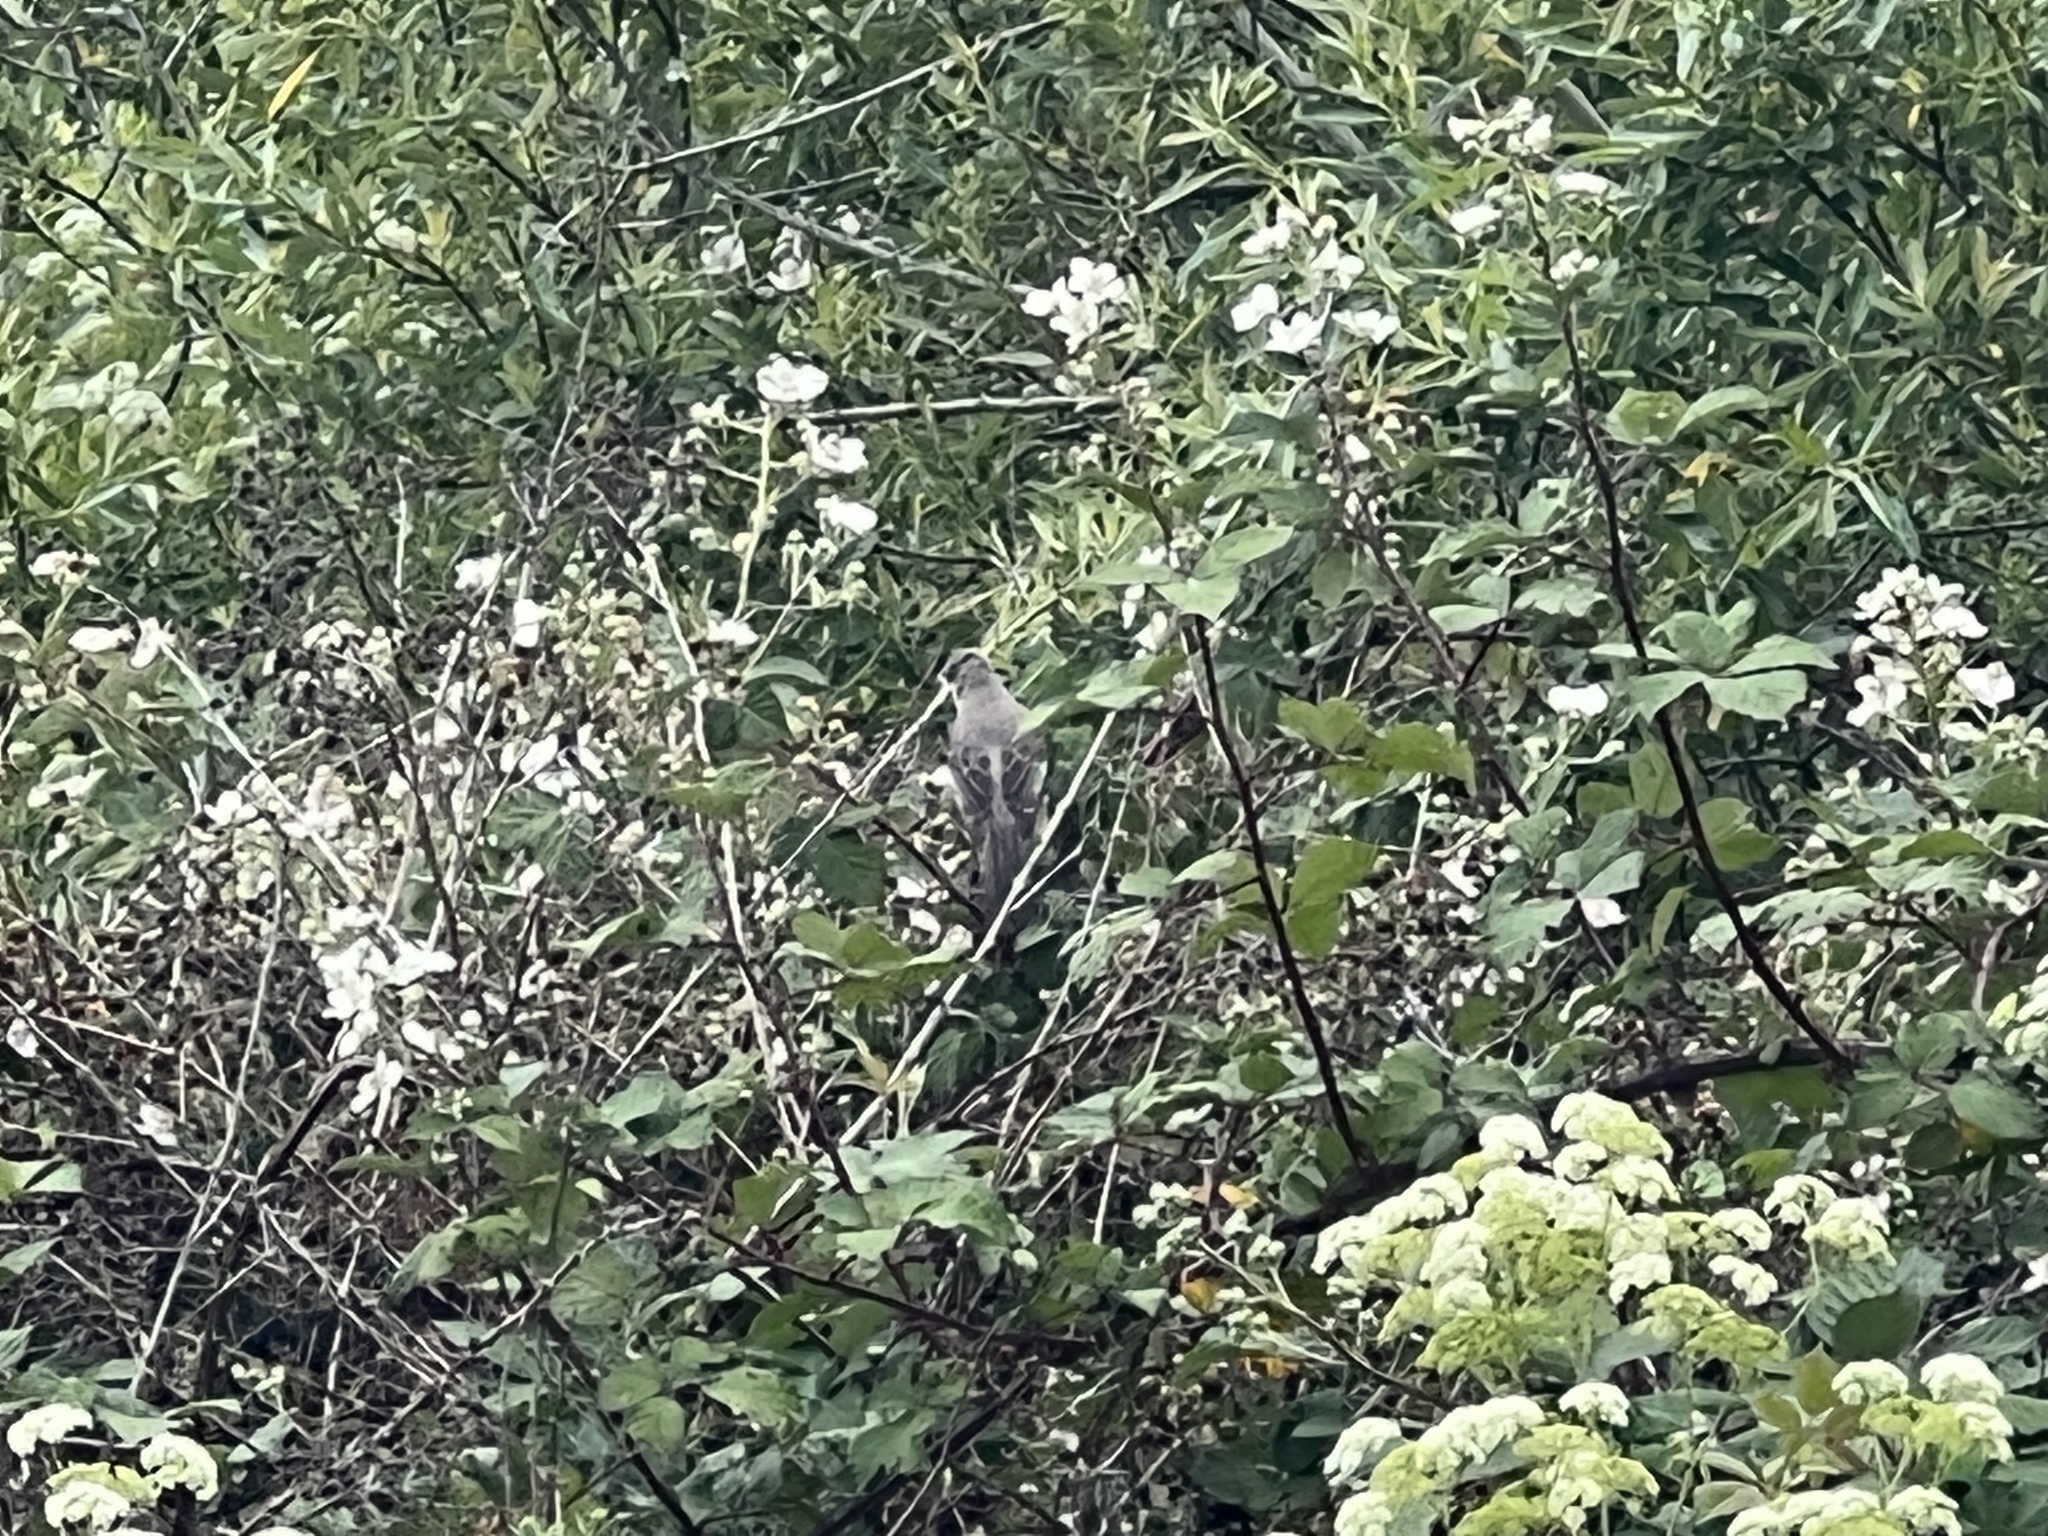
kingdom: Animalia
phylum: Chordata
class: Aves
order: Passeriformes
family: Mimidae
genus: Mimus
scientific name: Mimus polyglottos
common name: Northern mockingbird
